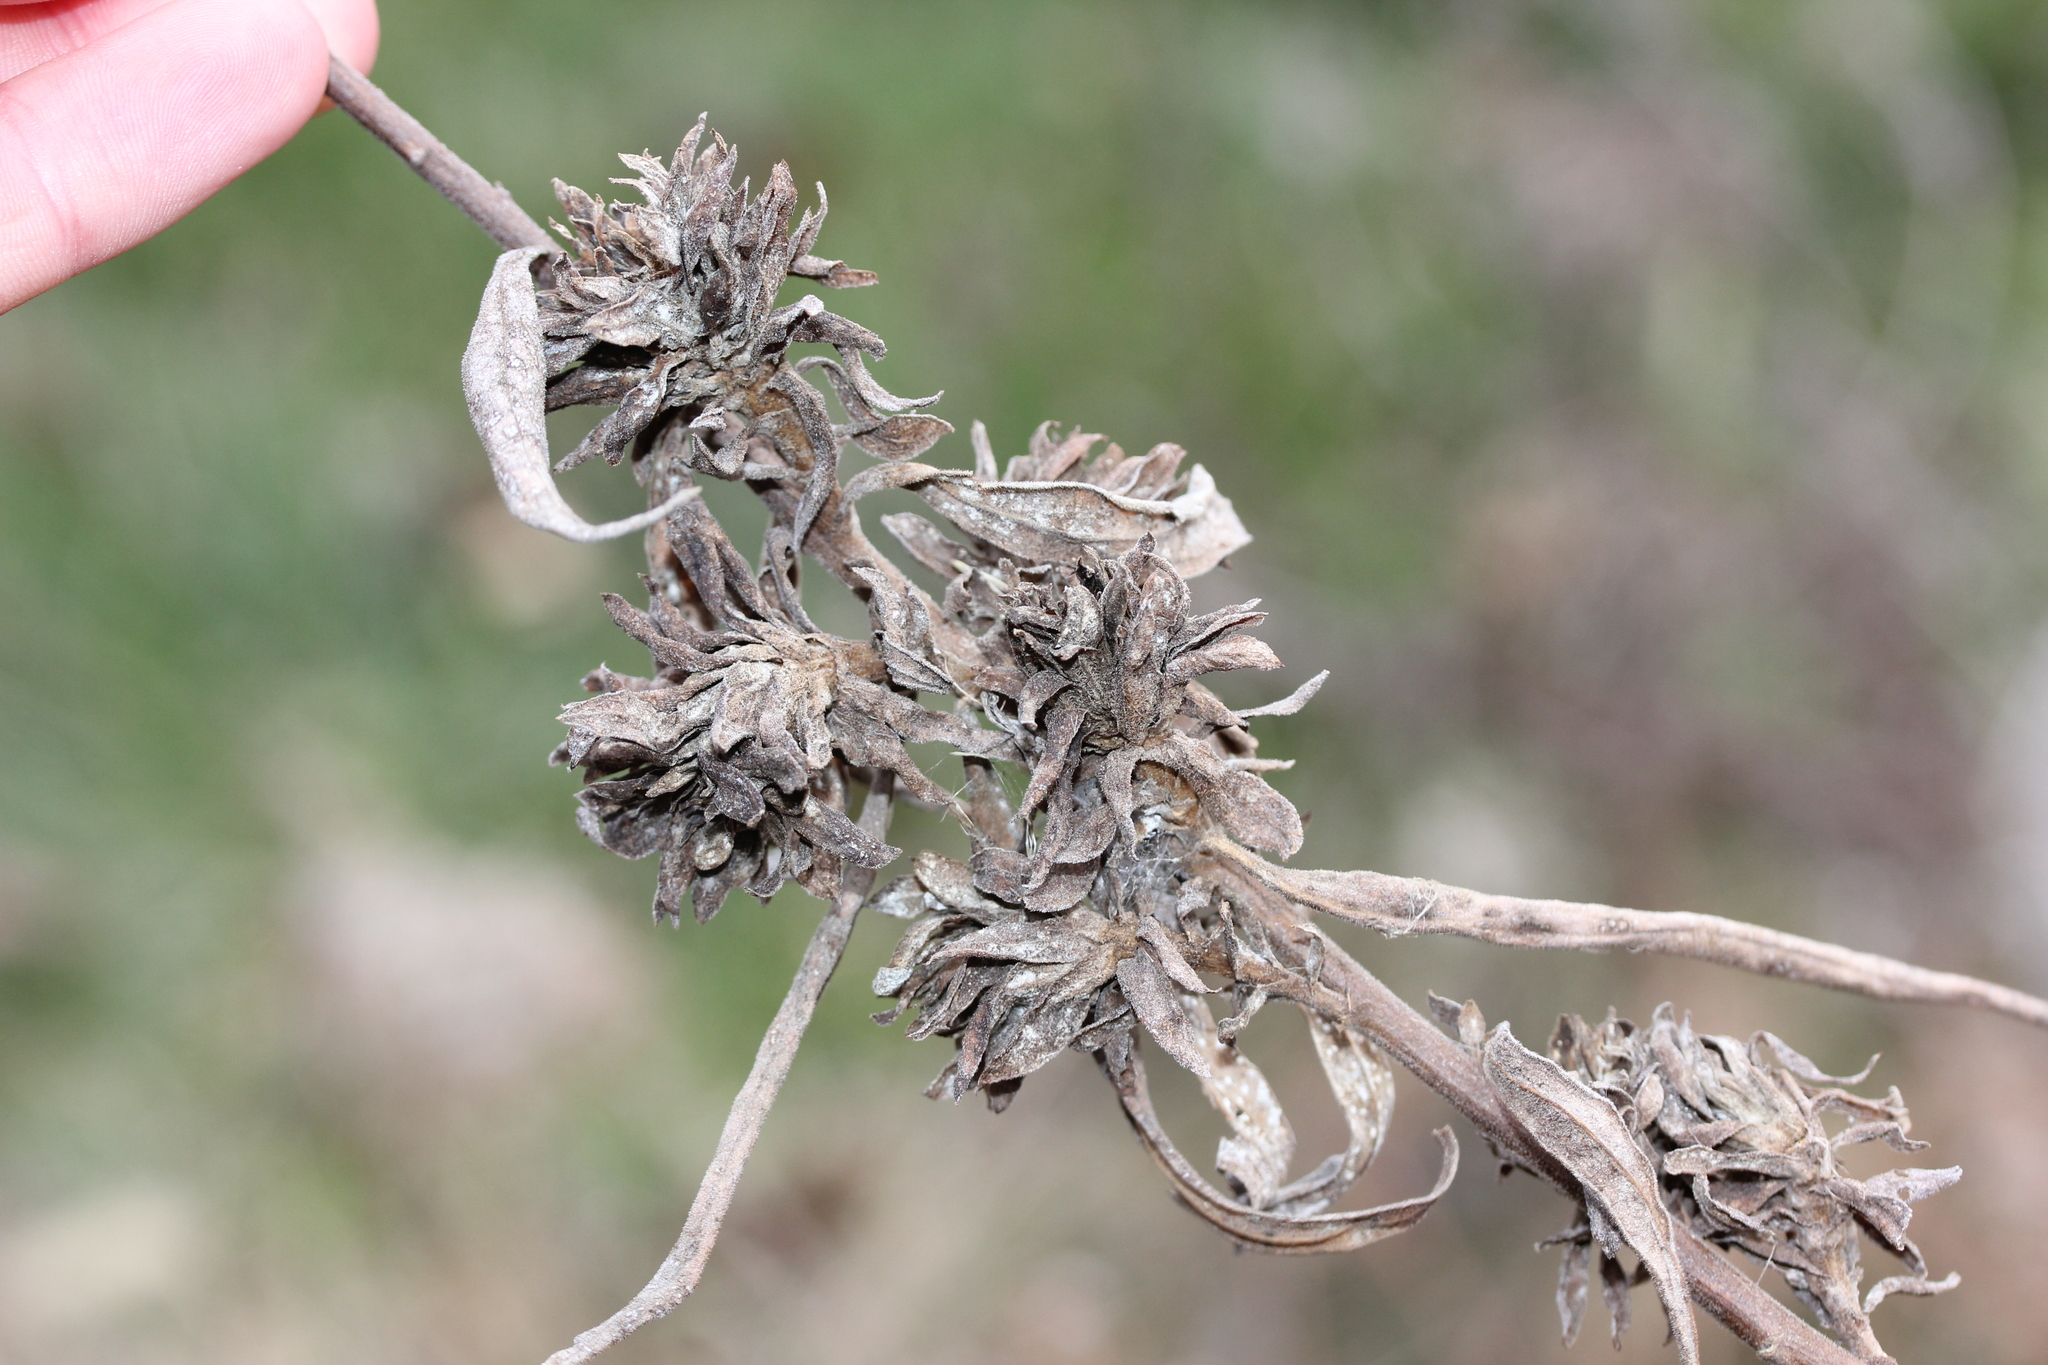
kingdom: Animalia
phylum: Arthropoda
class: Insecta
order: Diptera
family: Tephritidae
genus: Procecidochares
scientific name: Procecidochares atra
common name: Goldenrod brussels sprout gall fly
